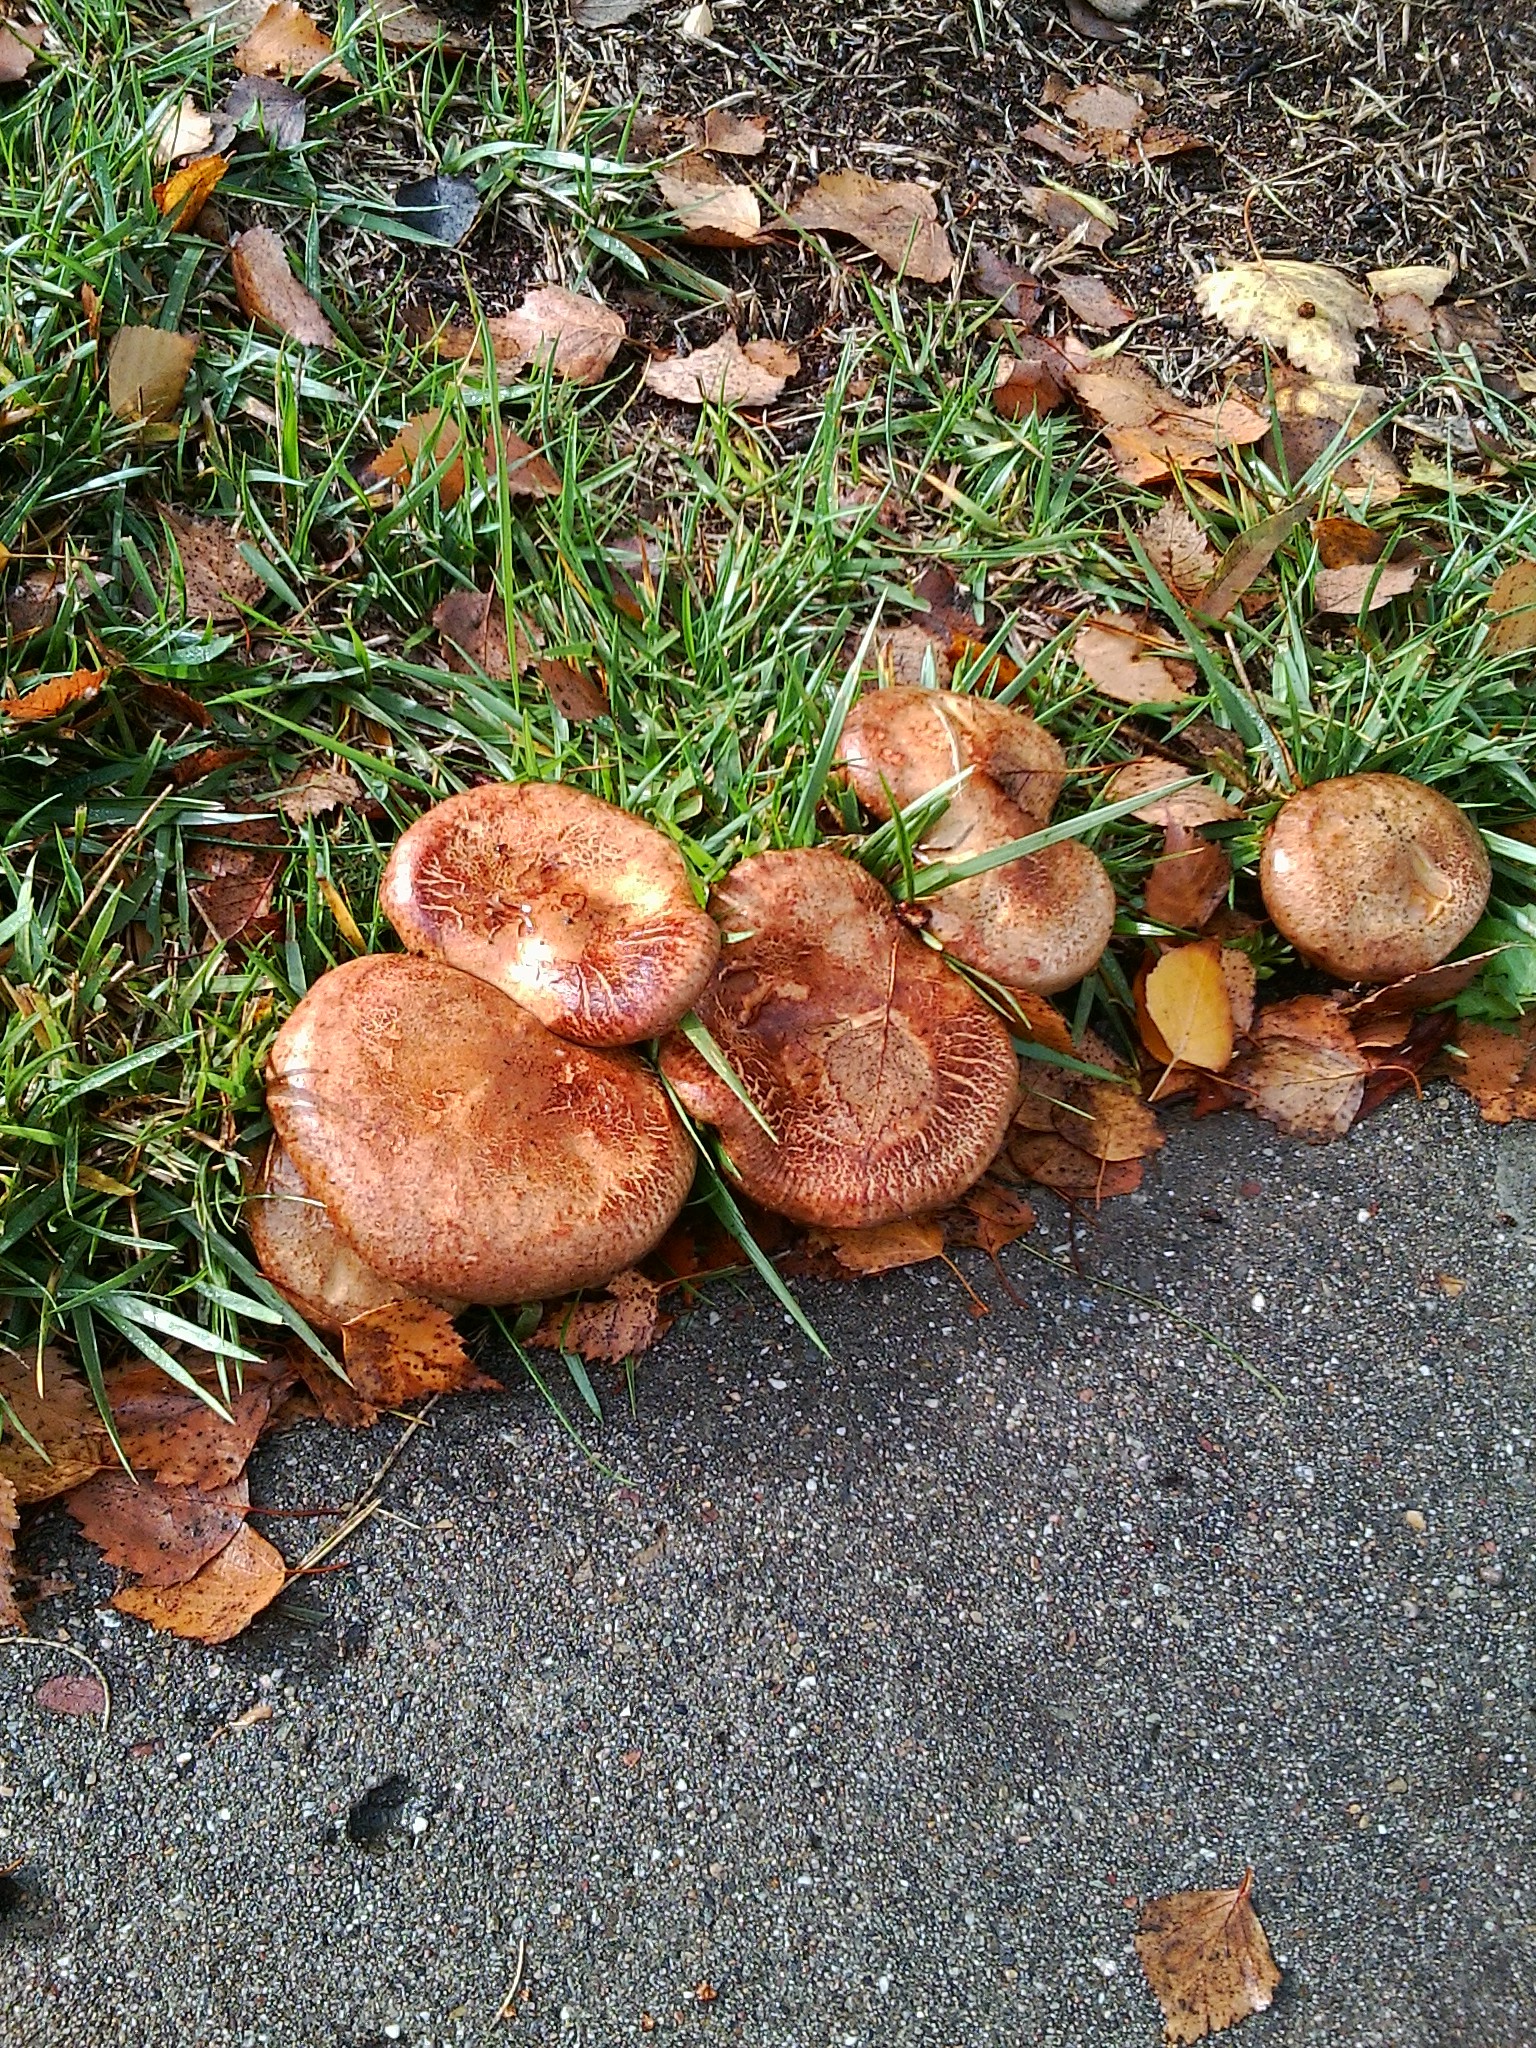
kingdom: Fungi
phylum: Basidiomycota
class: Agaricomycetes
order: Boletales
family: Paxillaceae
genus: Paxillus
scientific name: Paxillus involutus
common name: Brown roll rim
